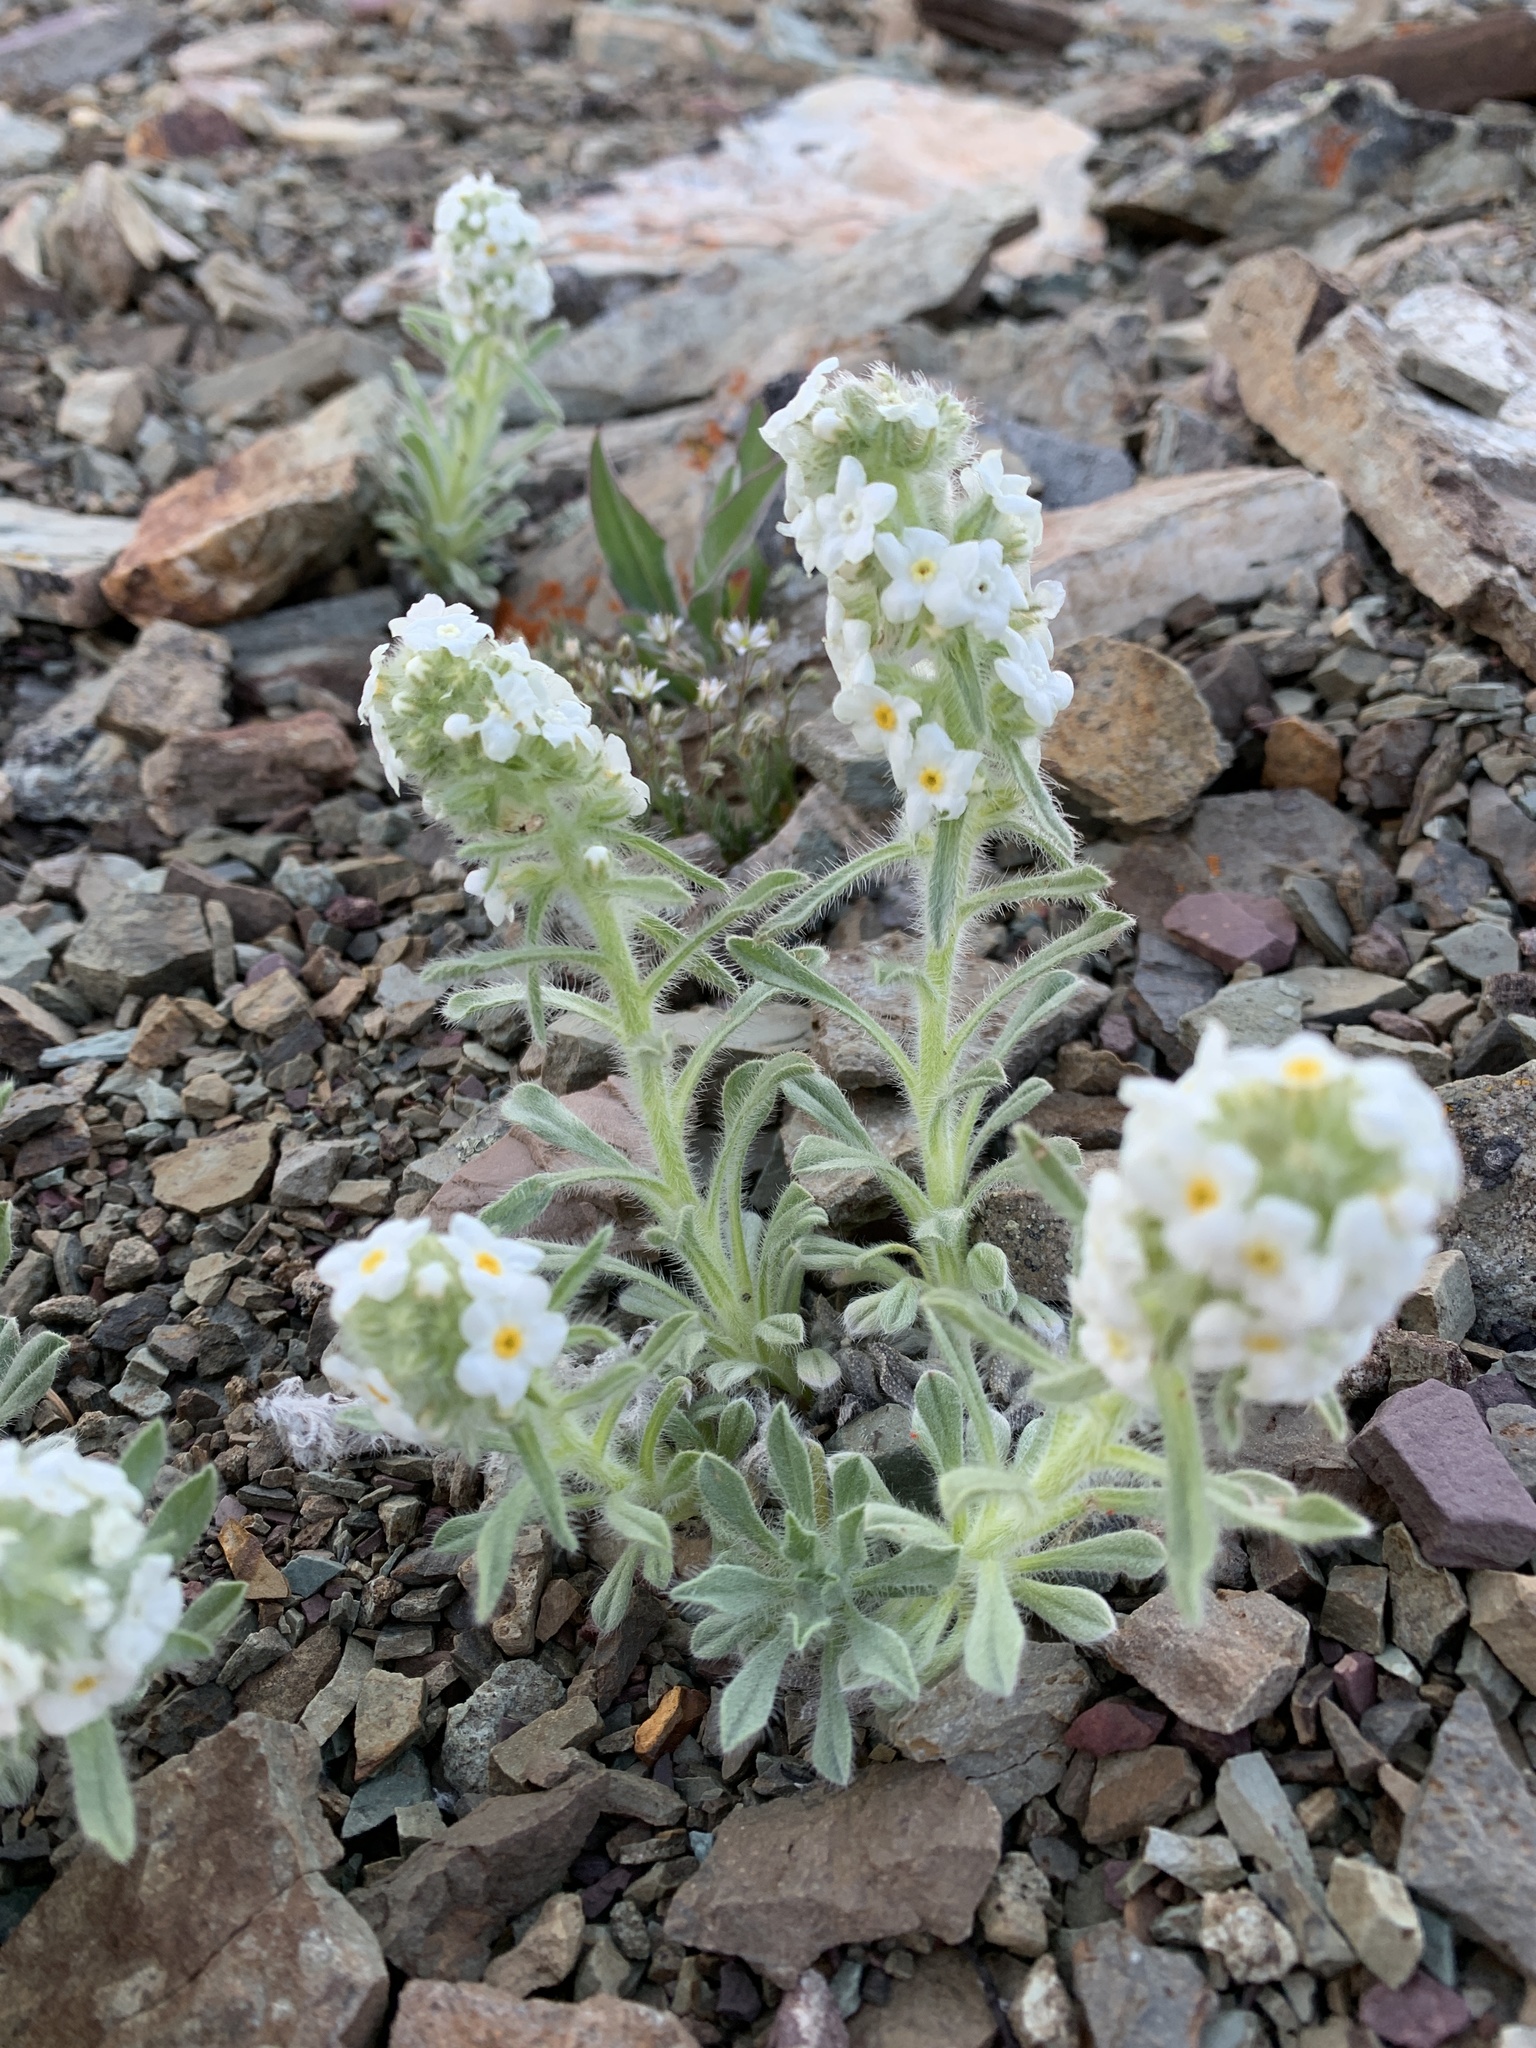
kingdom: Plantae
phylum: Tracheophyta
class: Magnoliopsida
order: Boraginales
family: Boraginaceae
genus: Oreocarya
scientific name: Oreocarya glomerata
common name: Macoun's cryptantha
